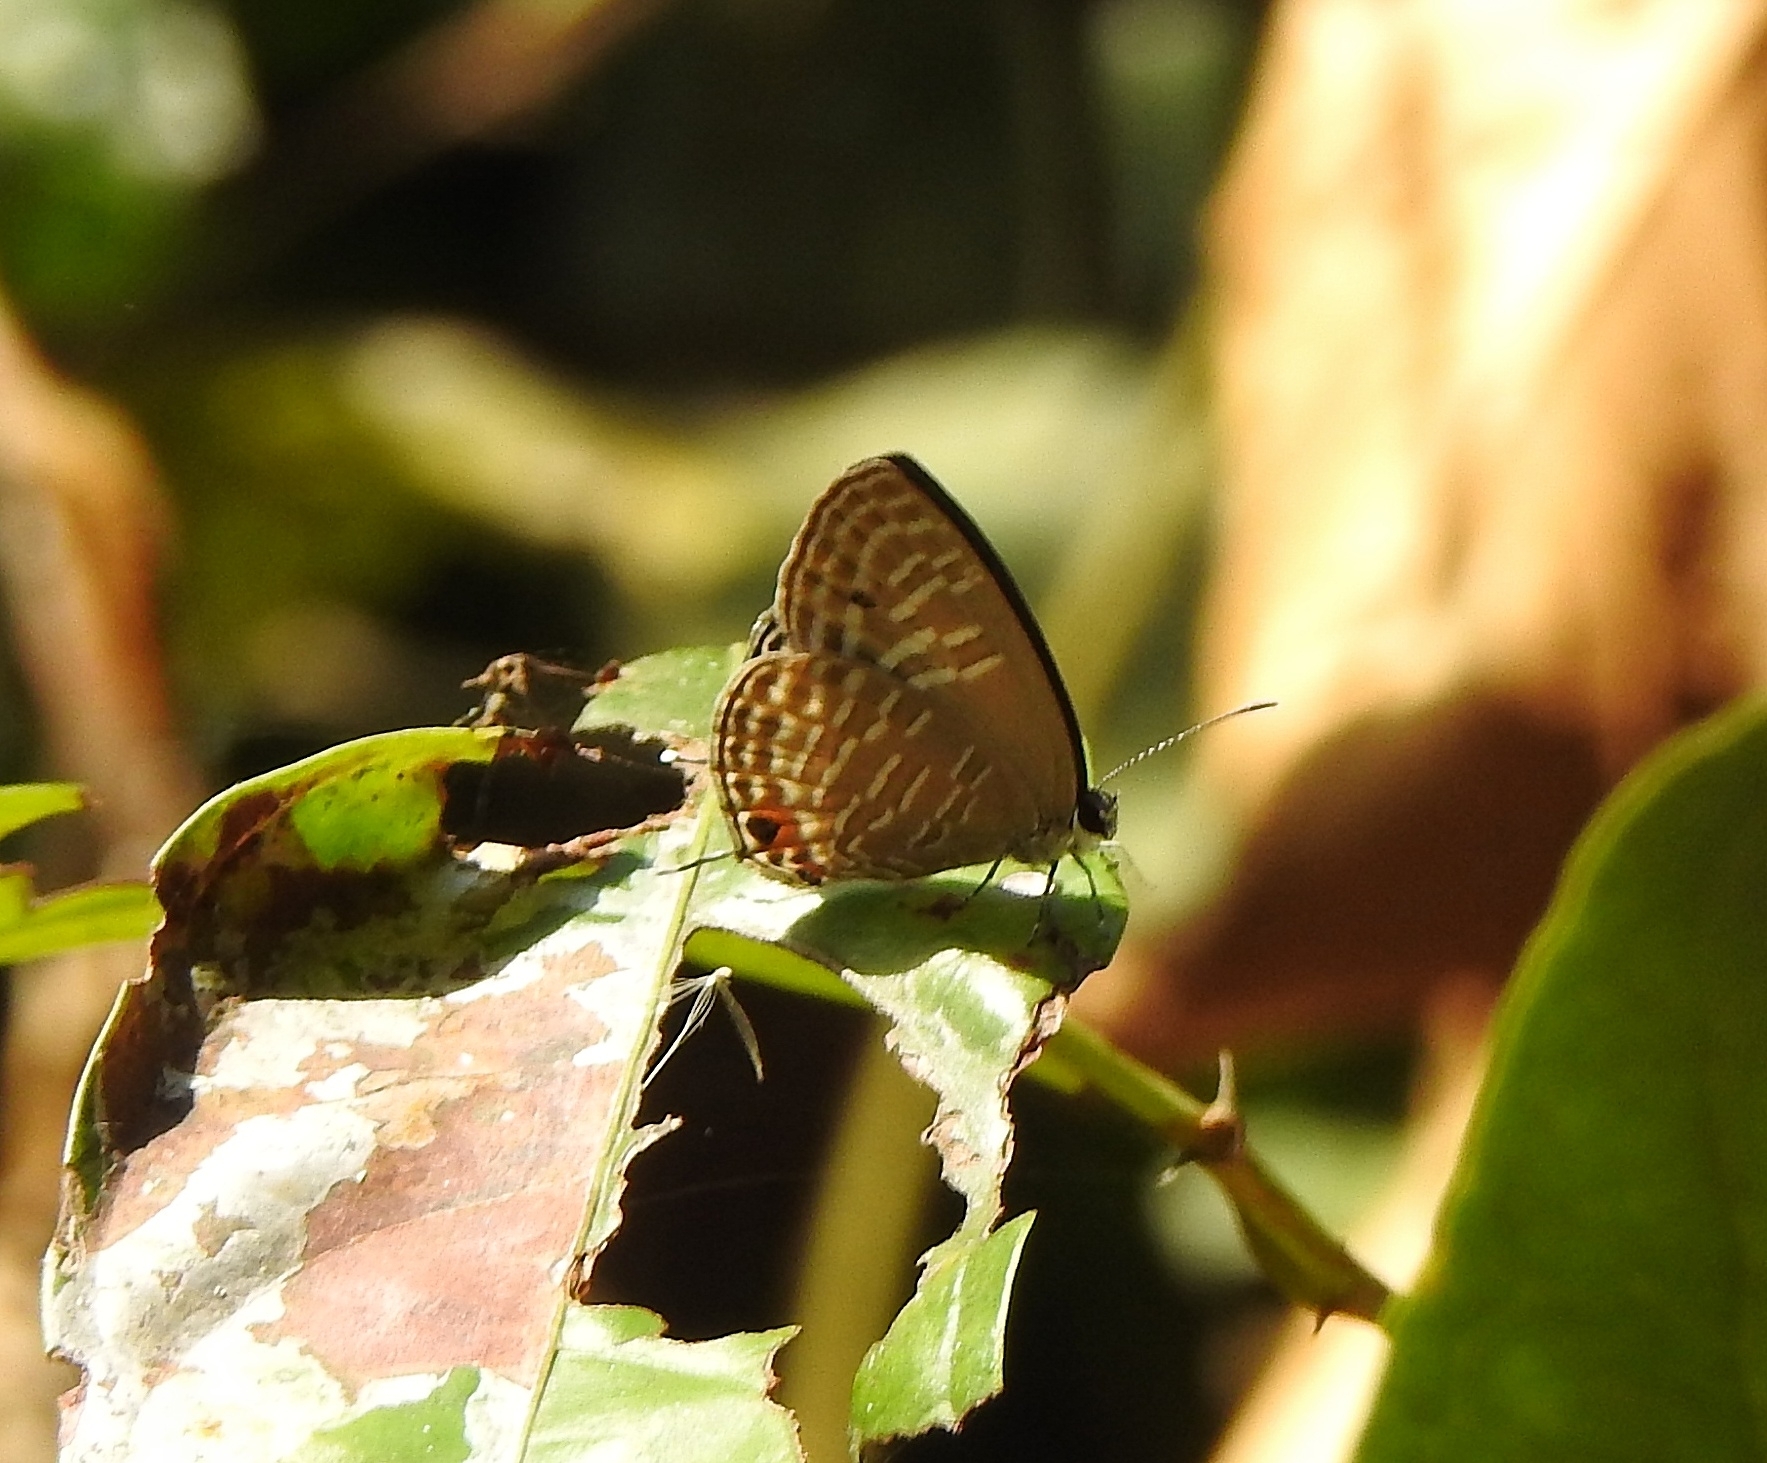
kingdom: Animalia
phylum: Arthropoda
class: Insecta
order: Lepidoptera
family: Lycaenidae
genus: Jamides
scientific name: Jamides alecto
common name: Metallic cerulean
